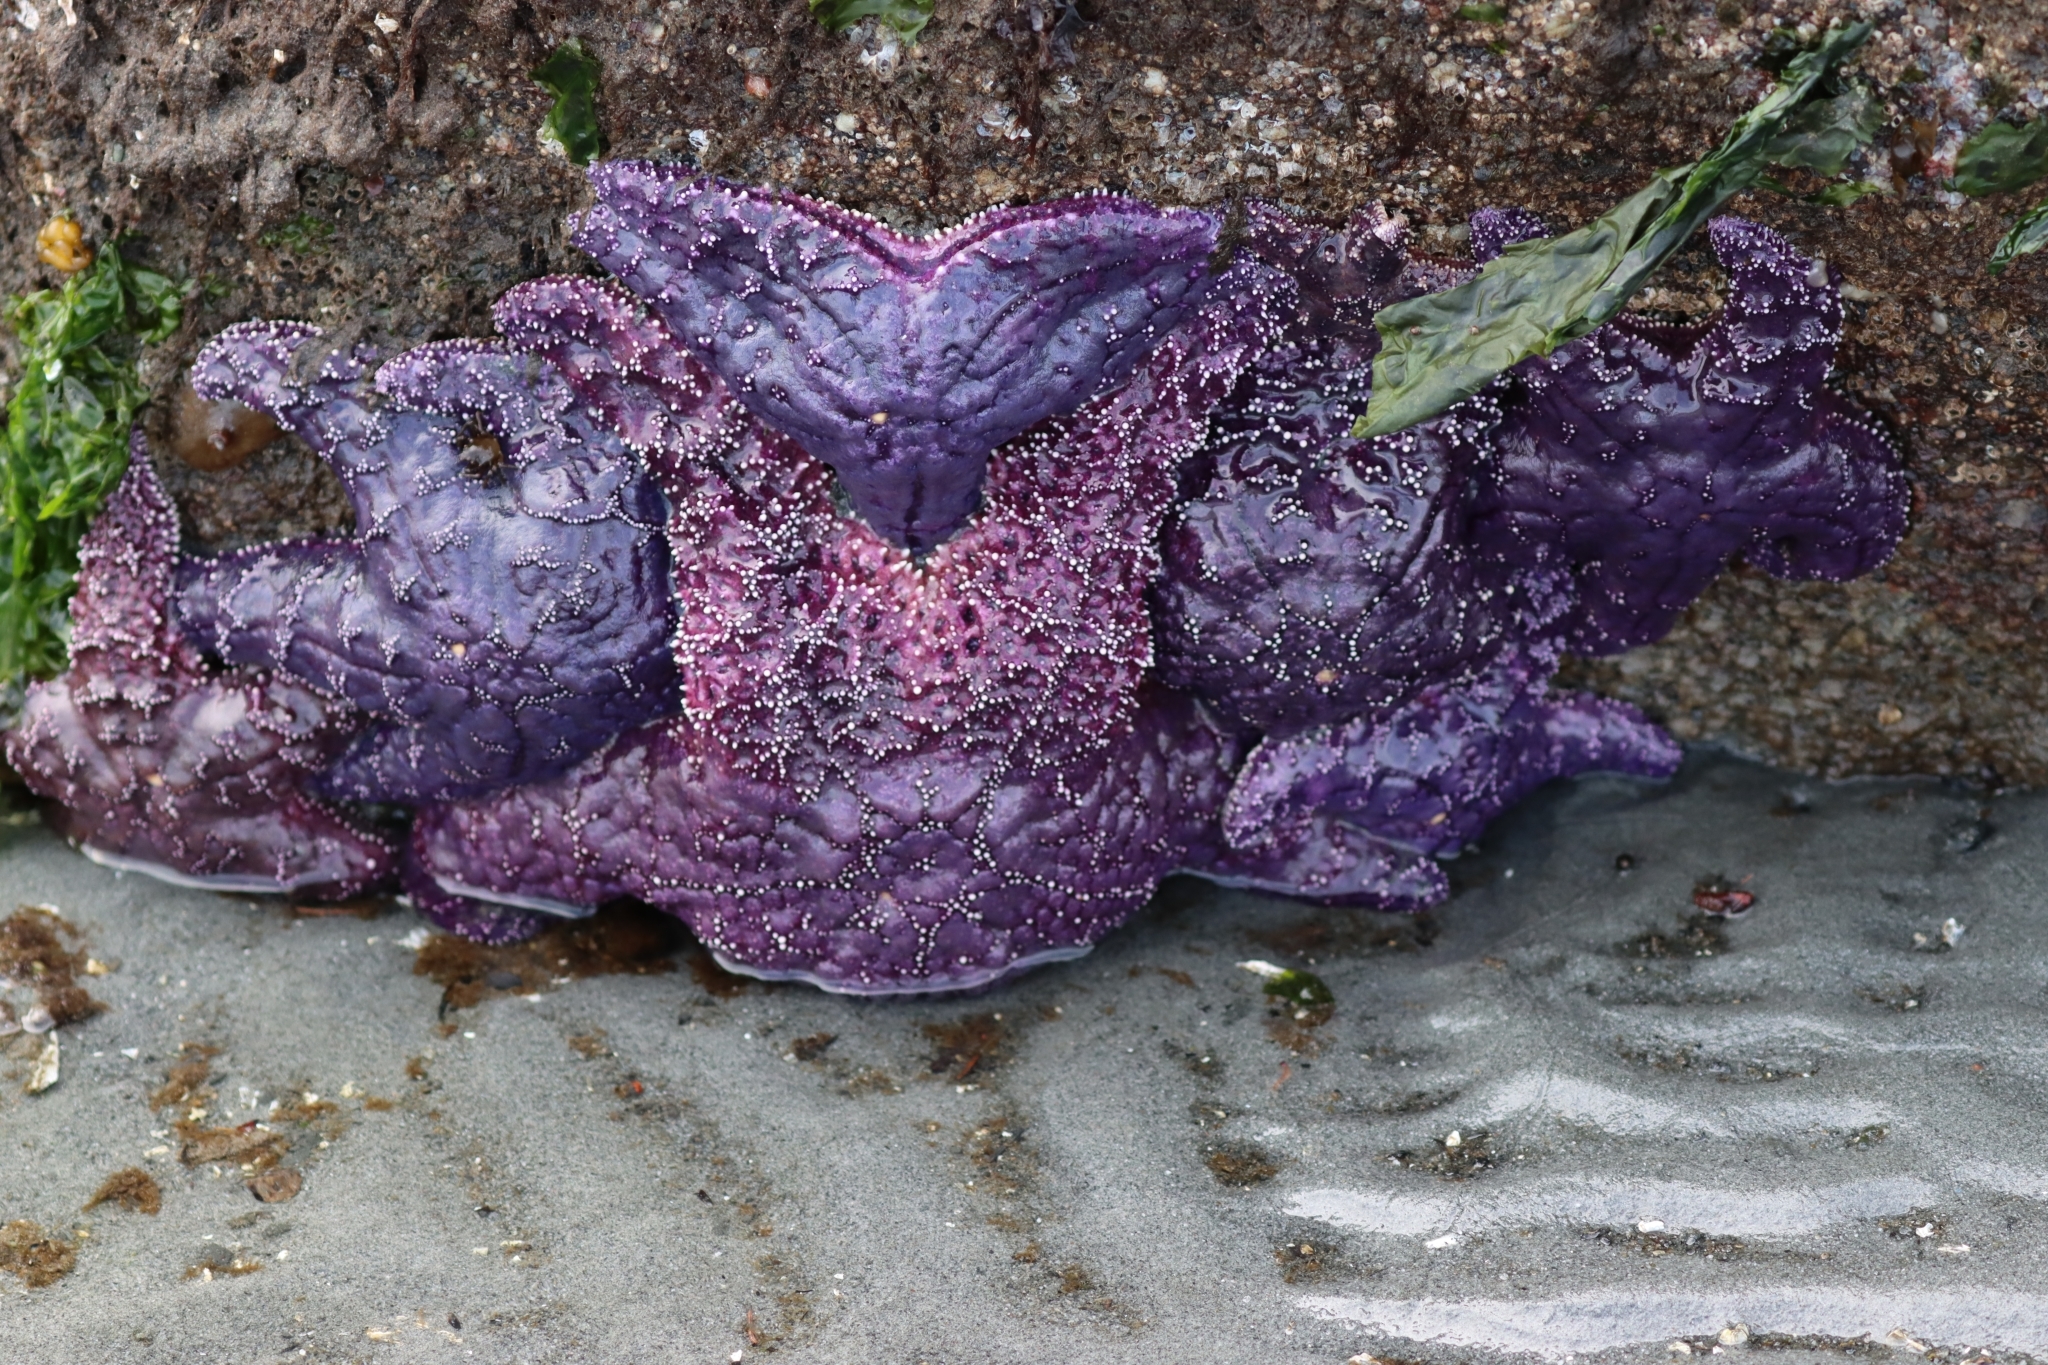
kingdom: Animalia
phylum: Echinodermata
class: Asteroidea
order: Forcipulatida
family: Asteriidae
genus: Pisaster
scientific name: Pisaster ochraceus
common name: Ochre stars
